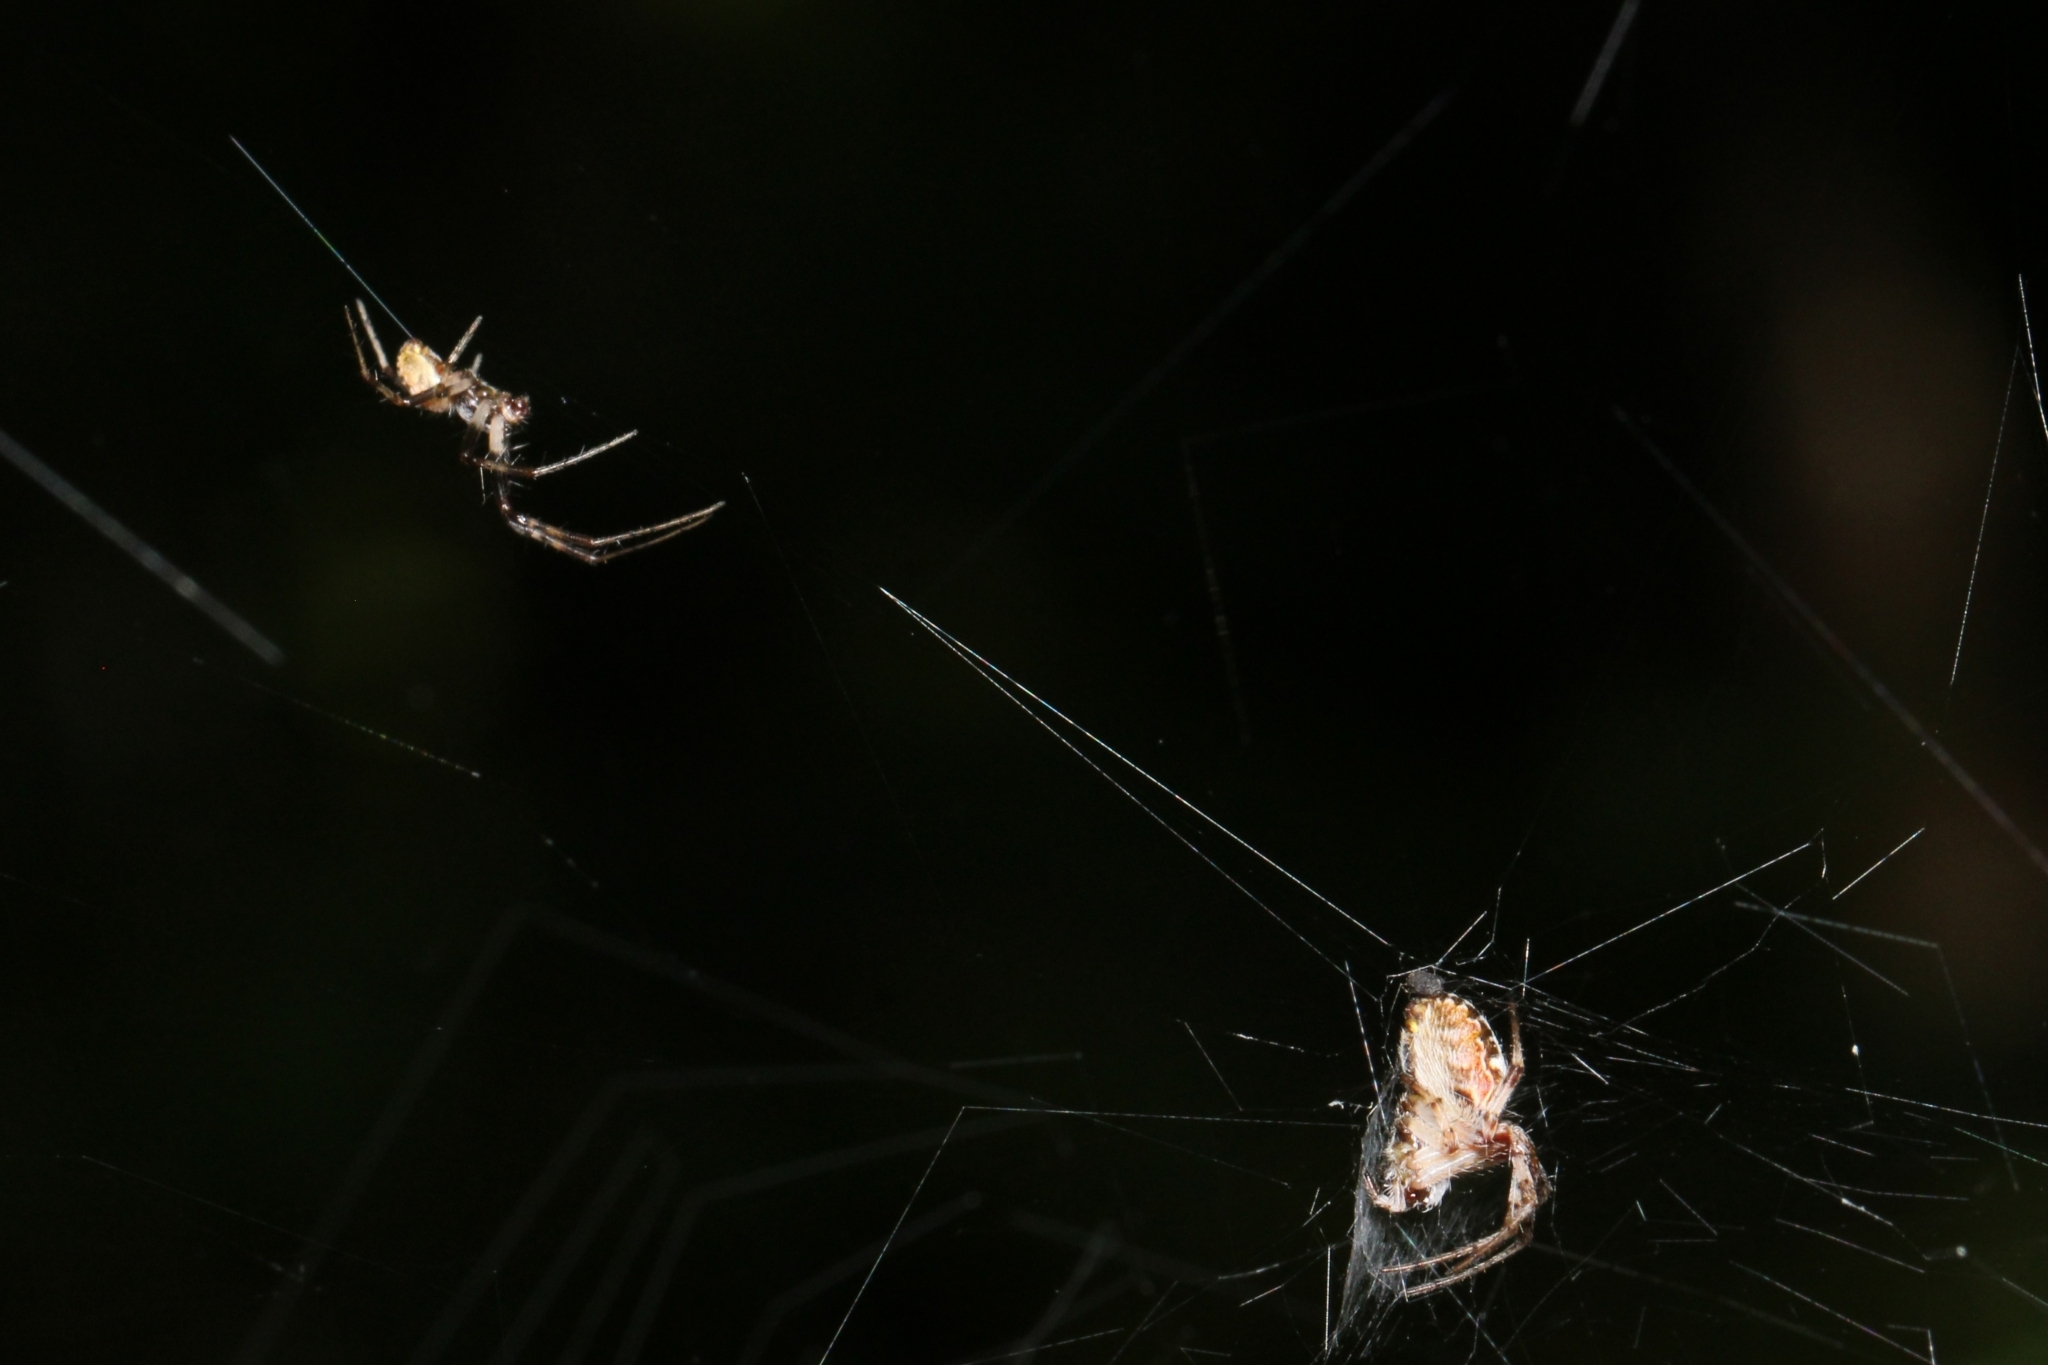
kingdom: Animalia
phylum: Arthropoda
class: Arachnida
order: Araneae
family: Araneidae
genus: Metepeira
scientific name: Metepeira labyrinthea
